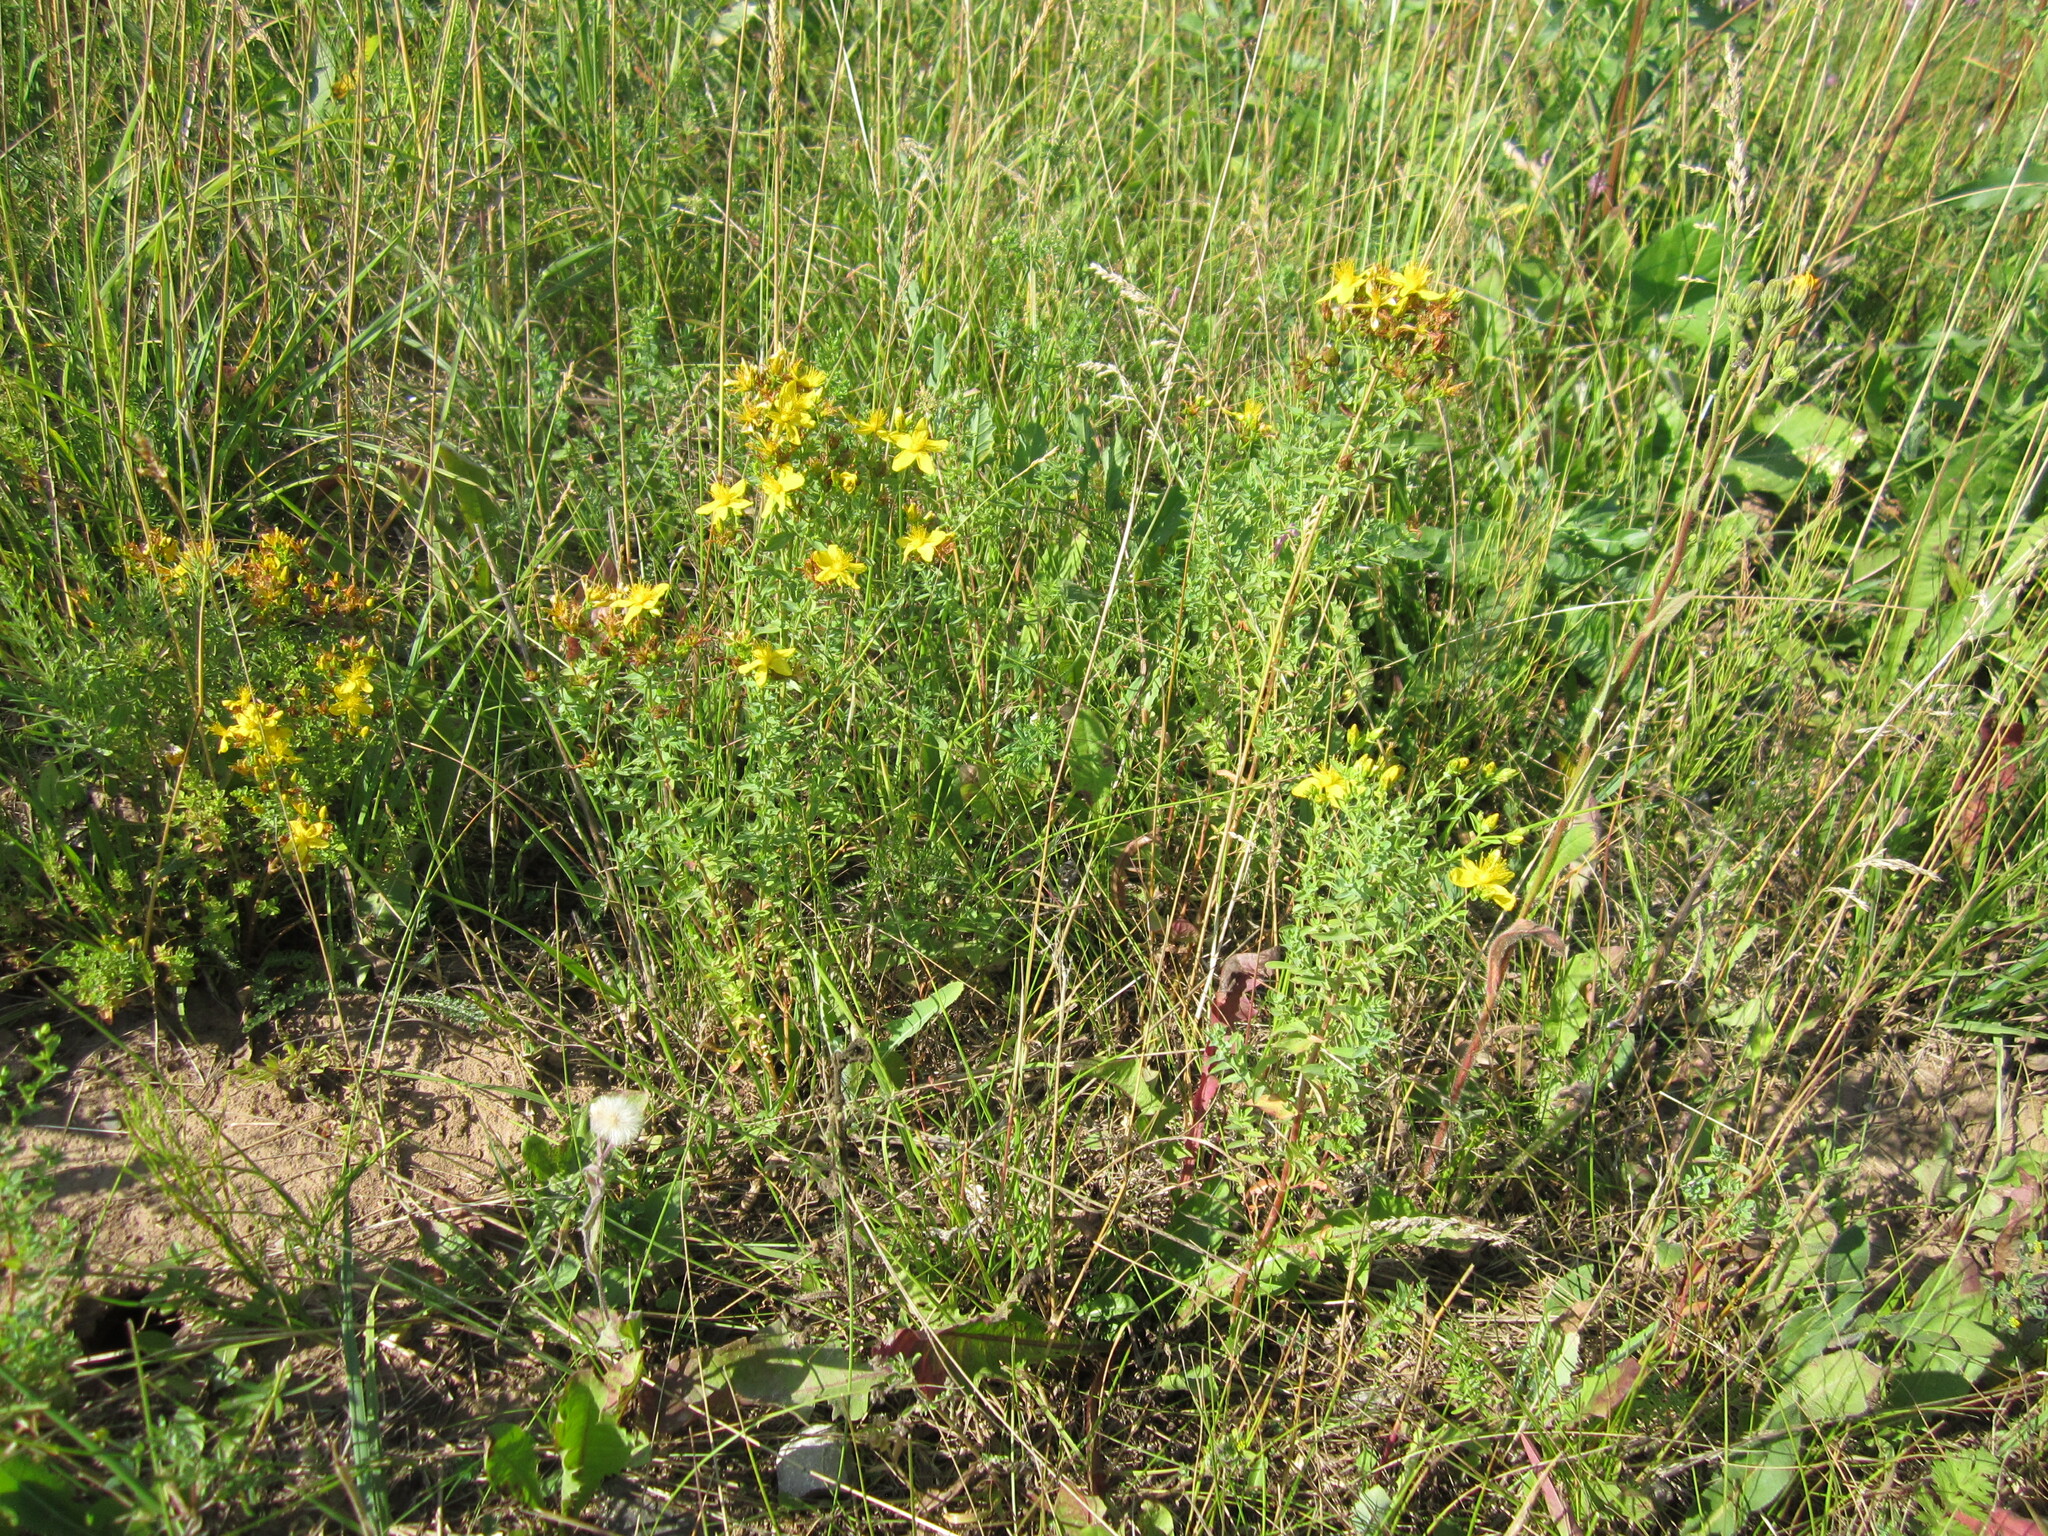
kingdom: Plantae
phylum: Tracheophyta
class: Magnoliopsida
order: Malpighiales
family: Hypericaceae
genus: Hypericum
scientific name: Hypericum perforatum
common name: Common st. johnswort
